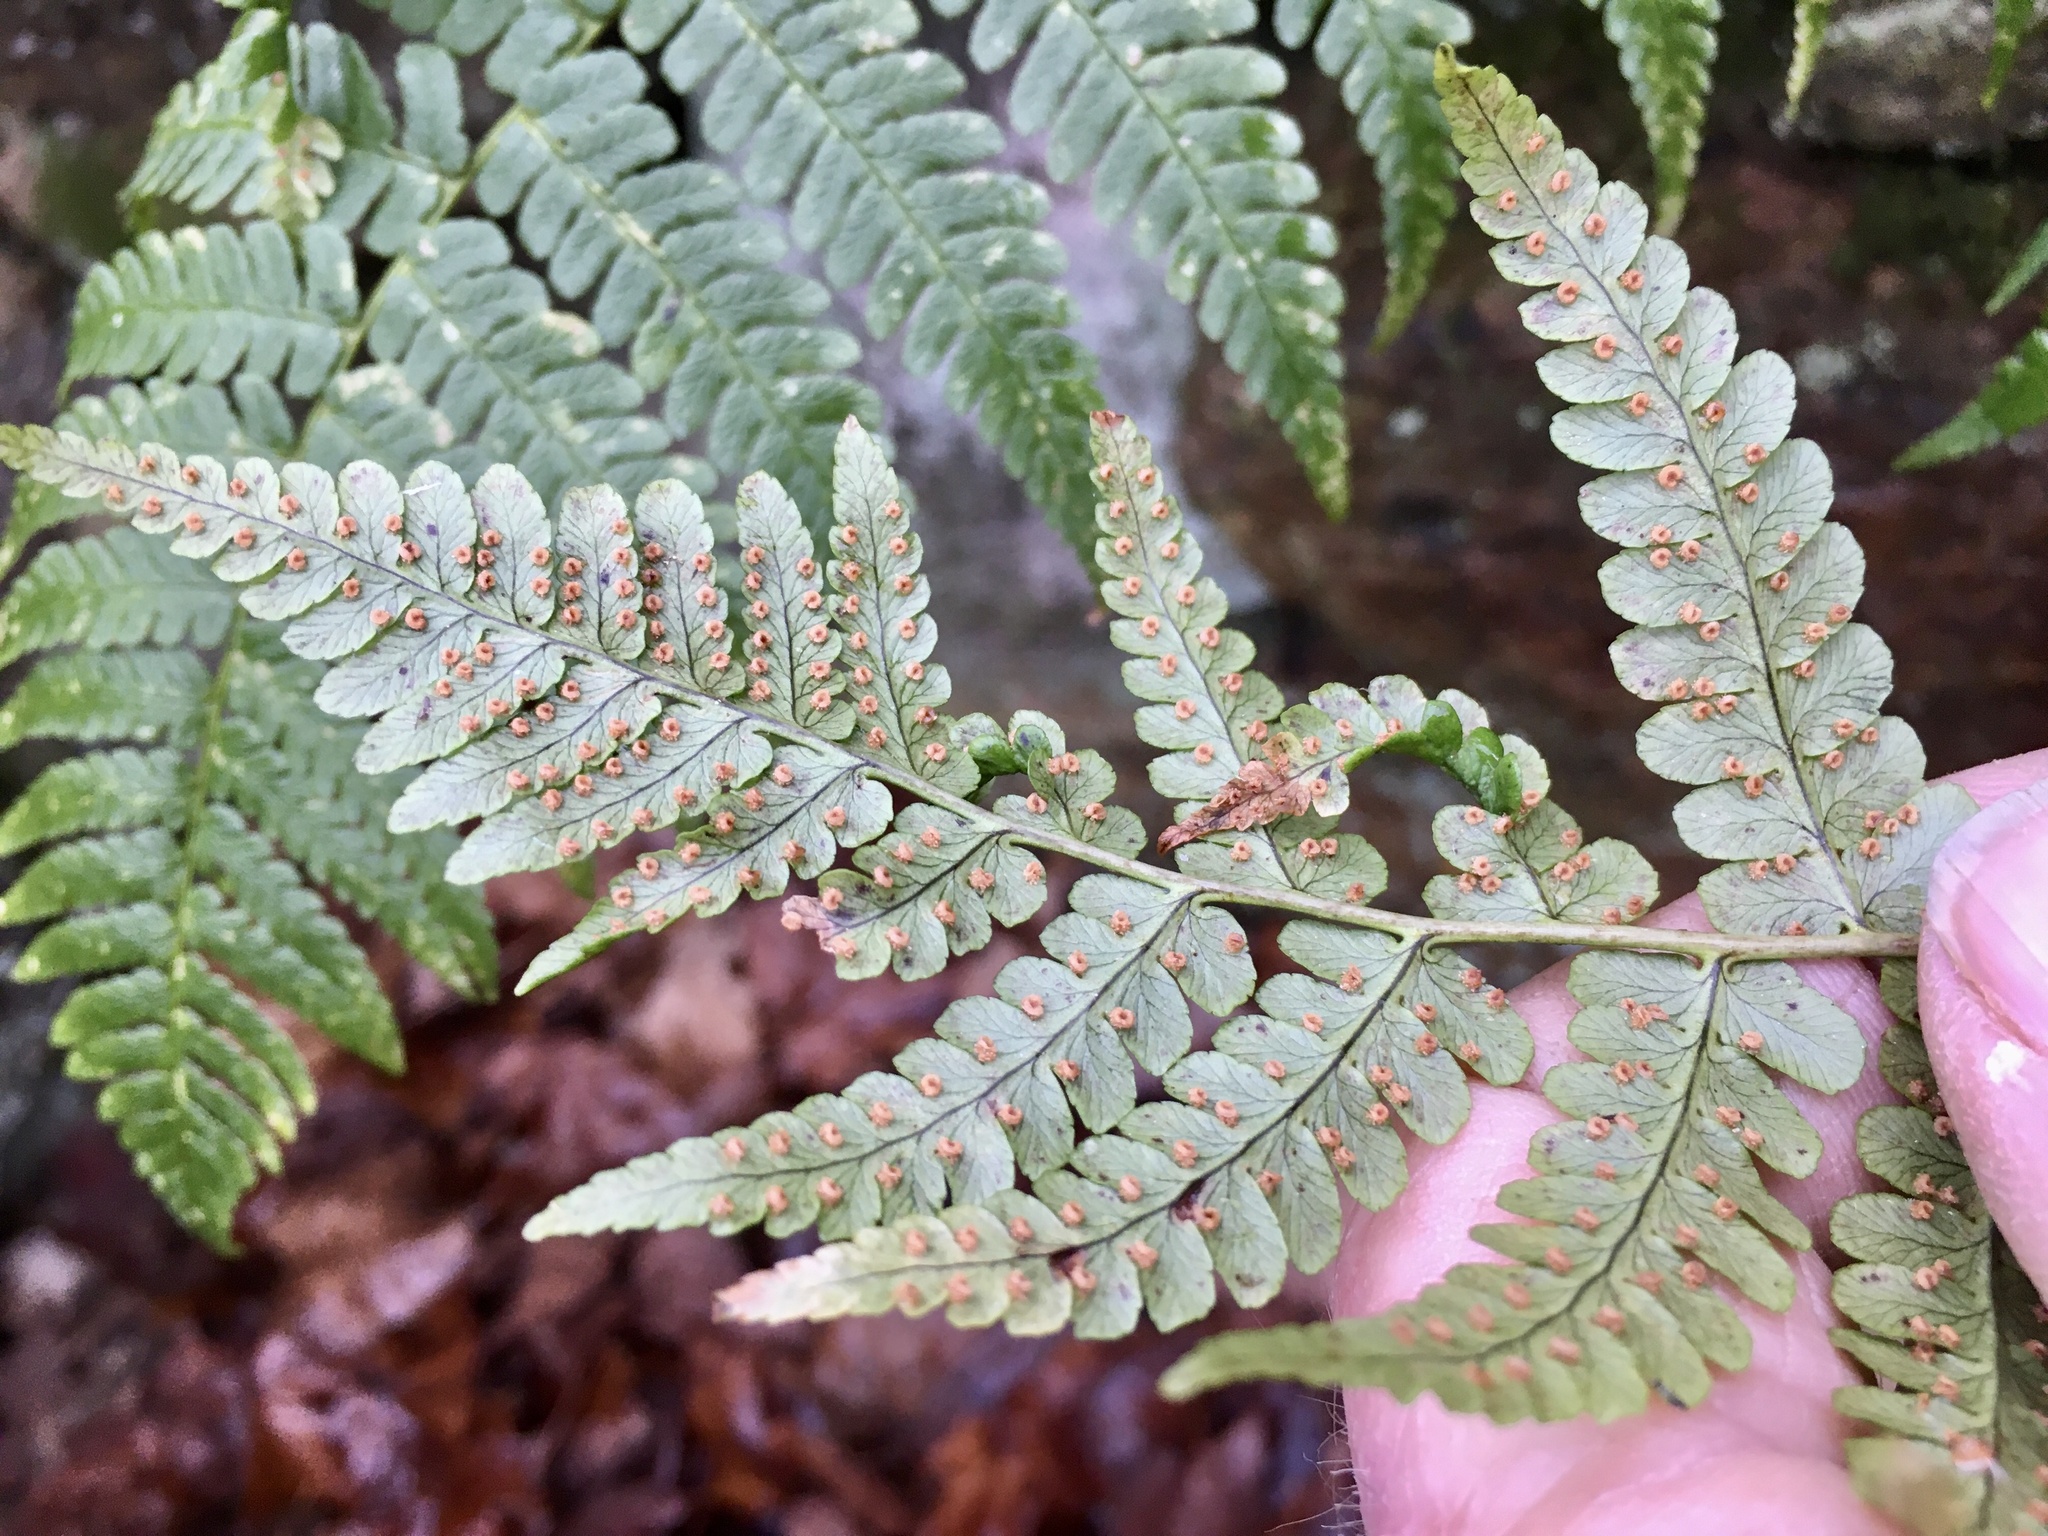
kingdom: Plantae
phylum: Tracheophyta
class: Polypodiopsida
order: Polypodiales
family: Dryopteridaceae
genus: Dryopteris
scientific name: Dryopteris marginalis
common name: Marginal wood fern
